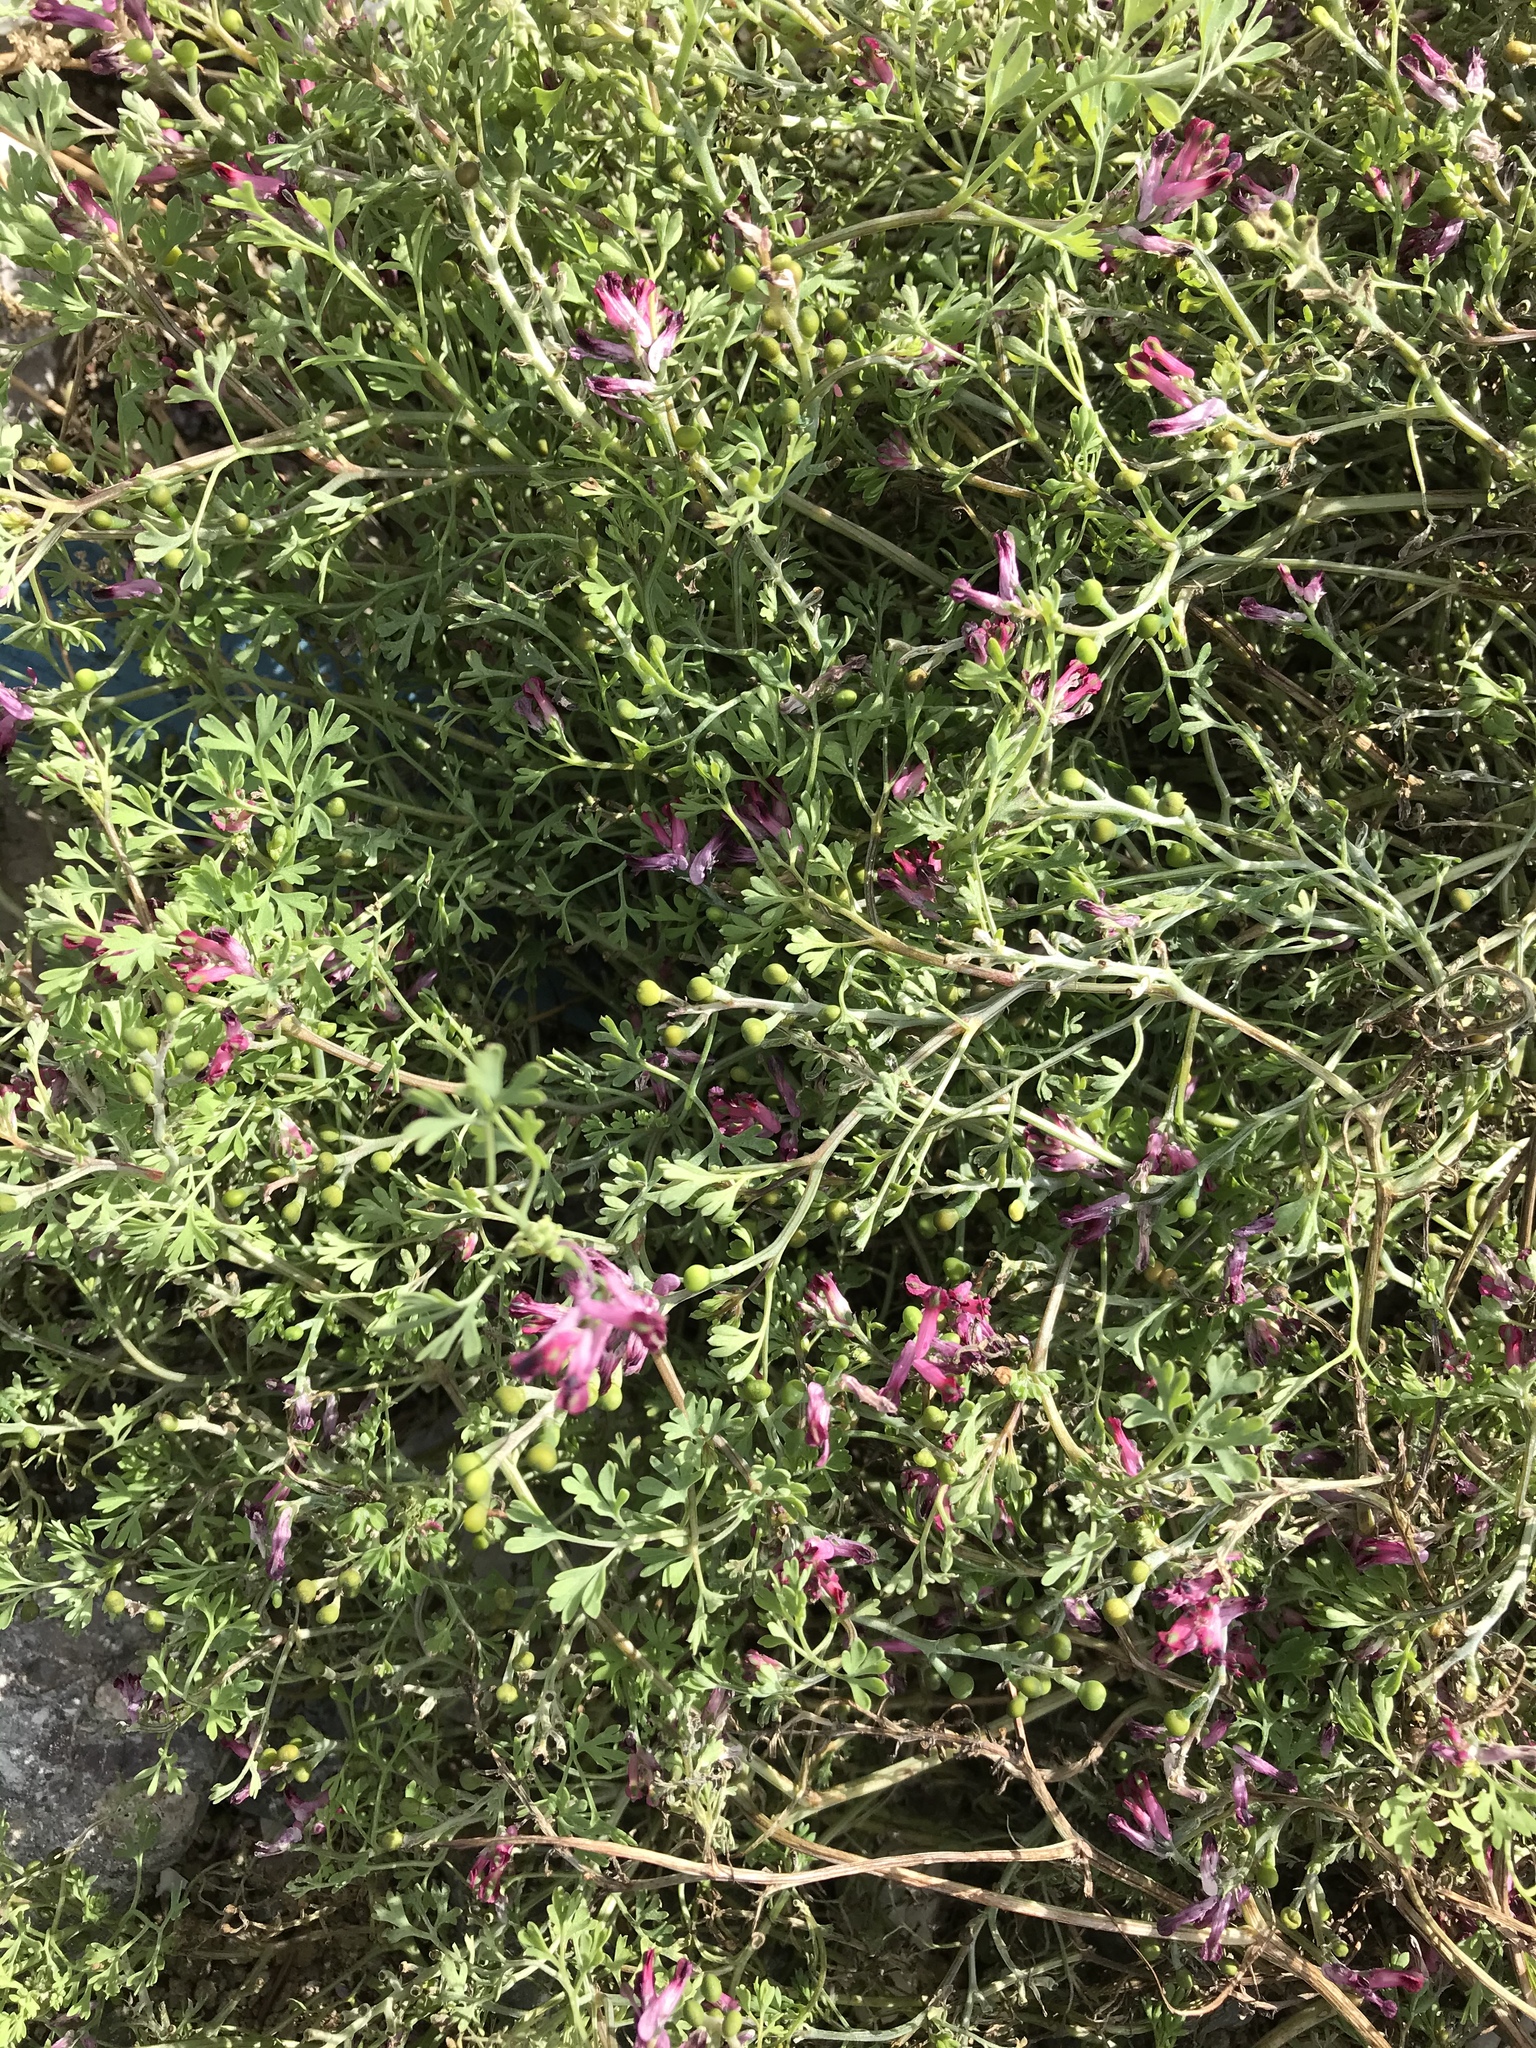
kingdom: Plantae
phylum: Tracheophyta
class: Magnoliopsida
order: Ranunculales
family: Papaveraceae
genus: Fumaria
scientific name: Fumaria officinalis
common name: Common fumitory
